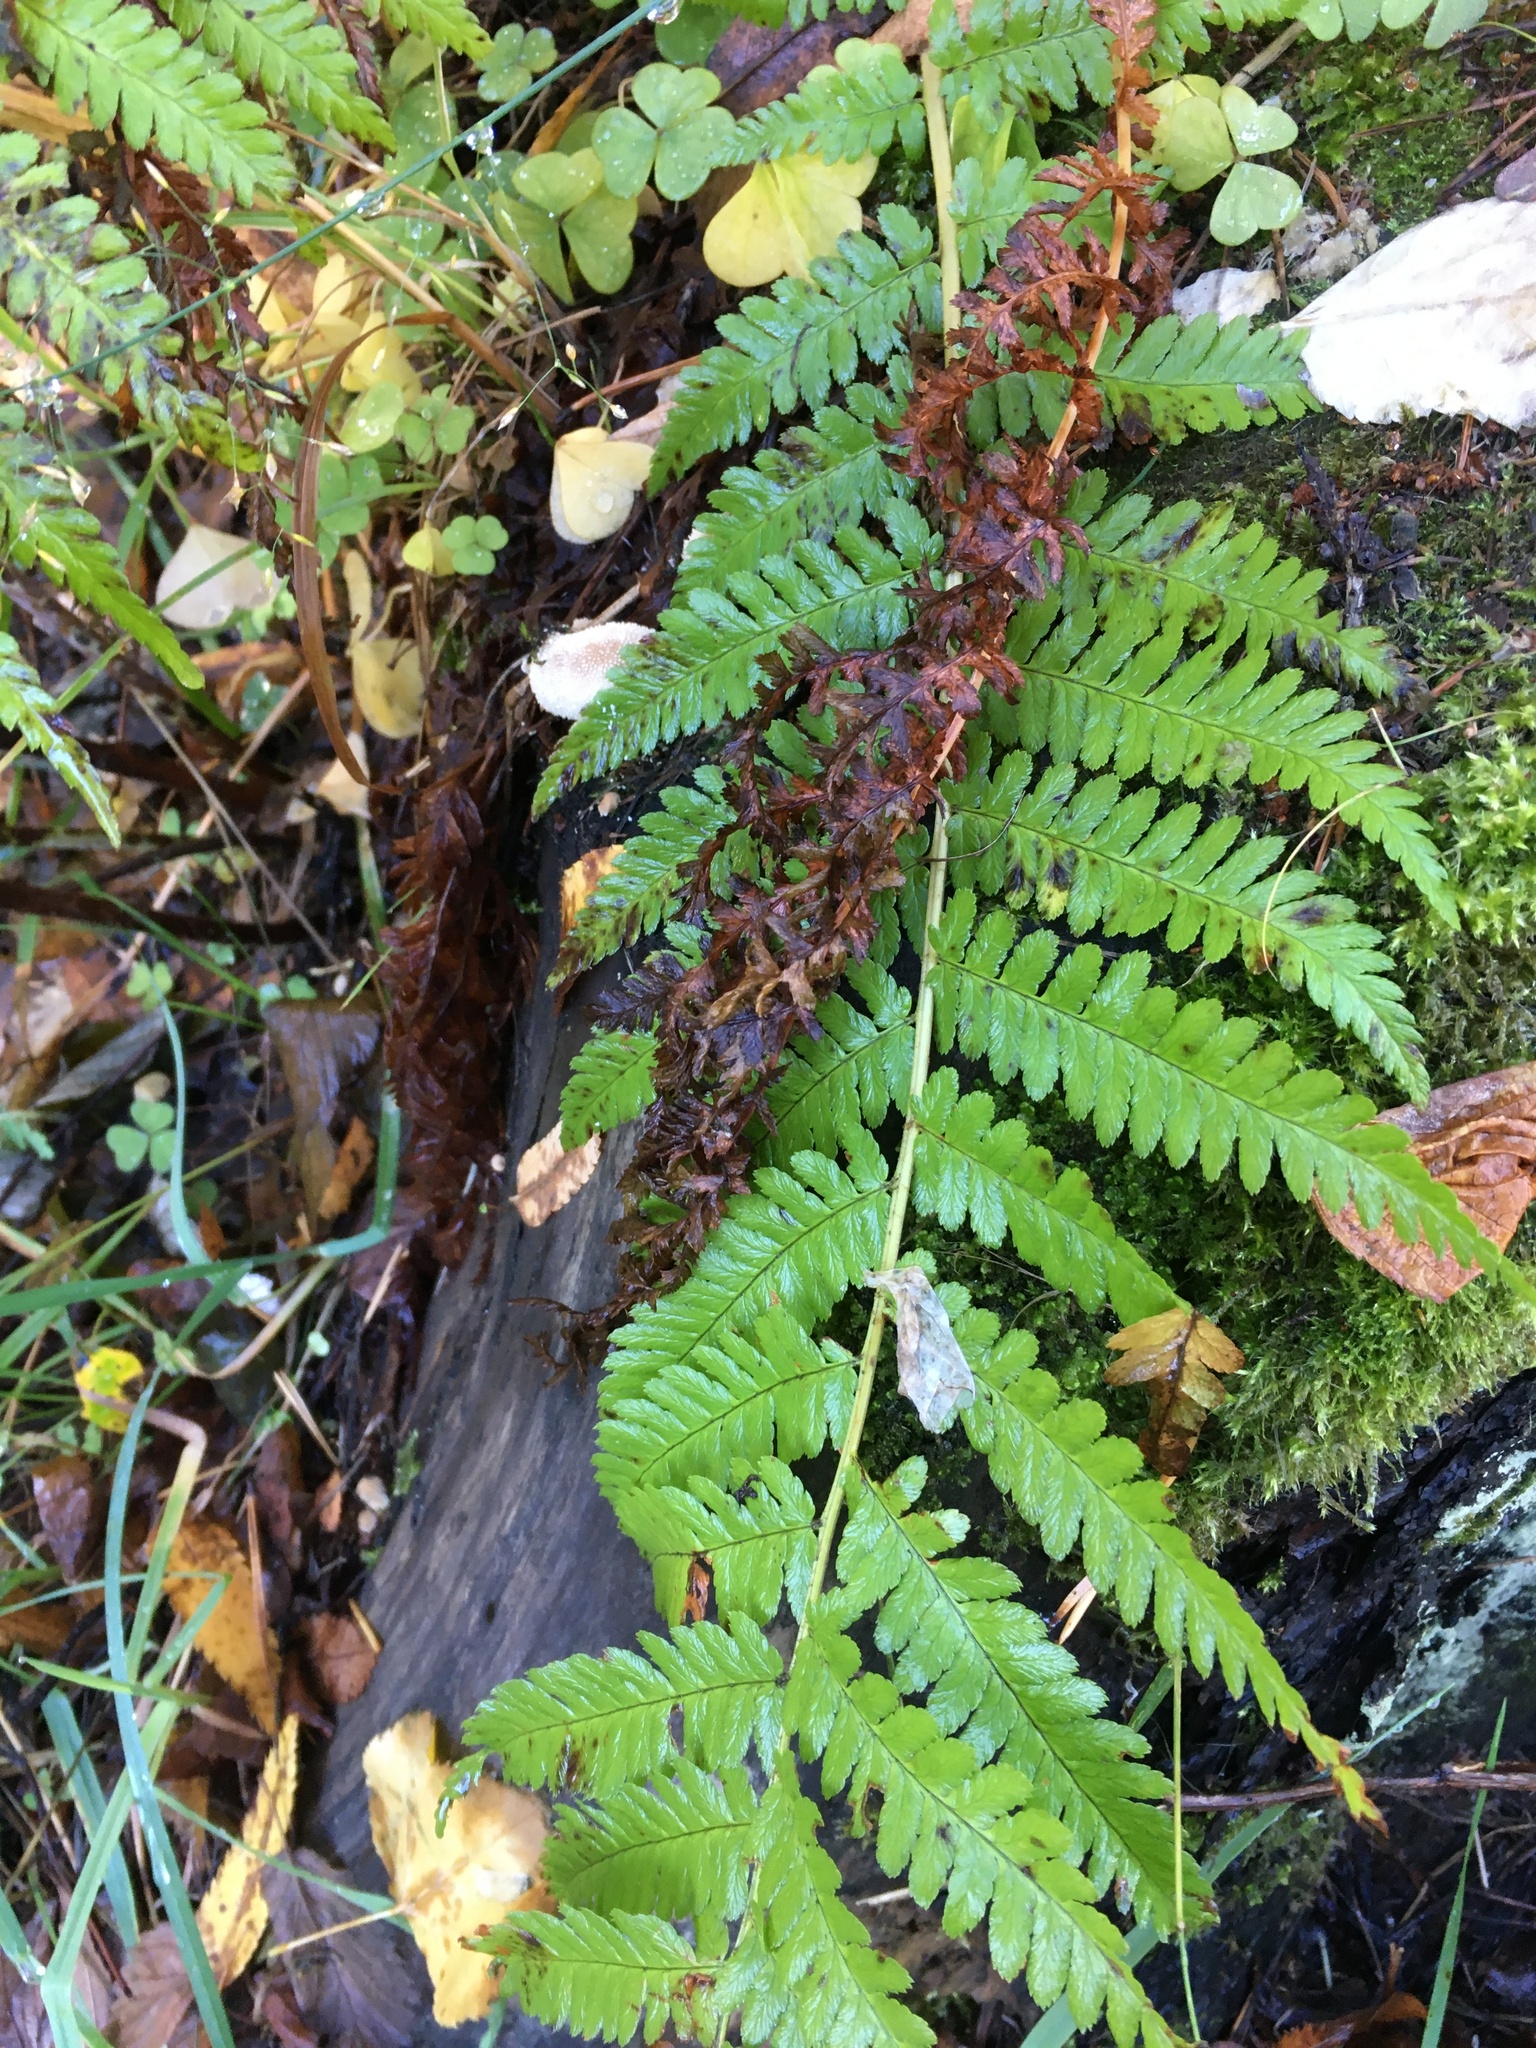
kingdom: Plantae
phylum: Tracheophyta
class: Polypodiopsida
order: Polypodiales
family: Dryopteridaceae
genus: Dryopteris
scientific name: Dryopteris filix-mas
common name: Male fern
